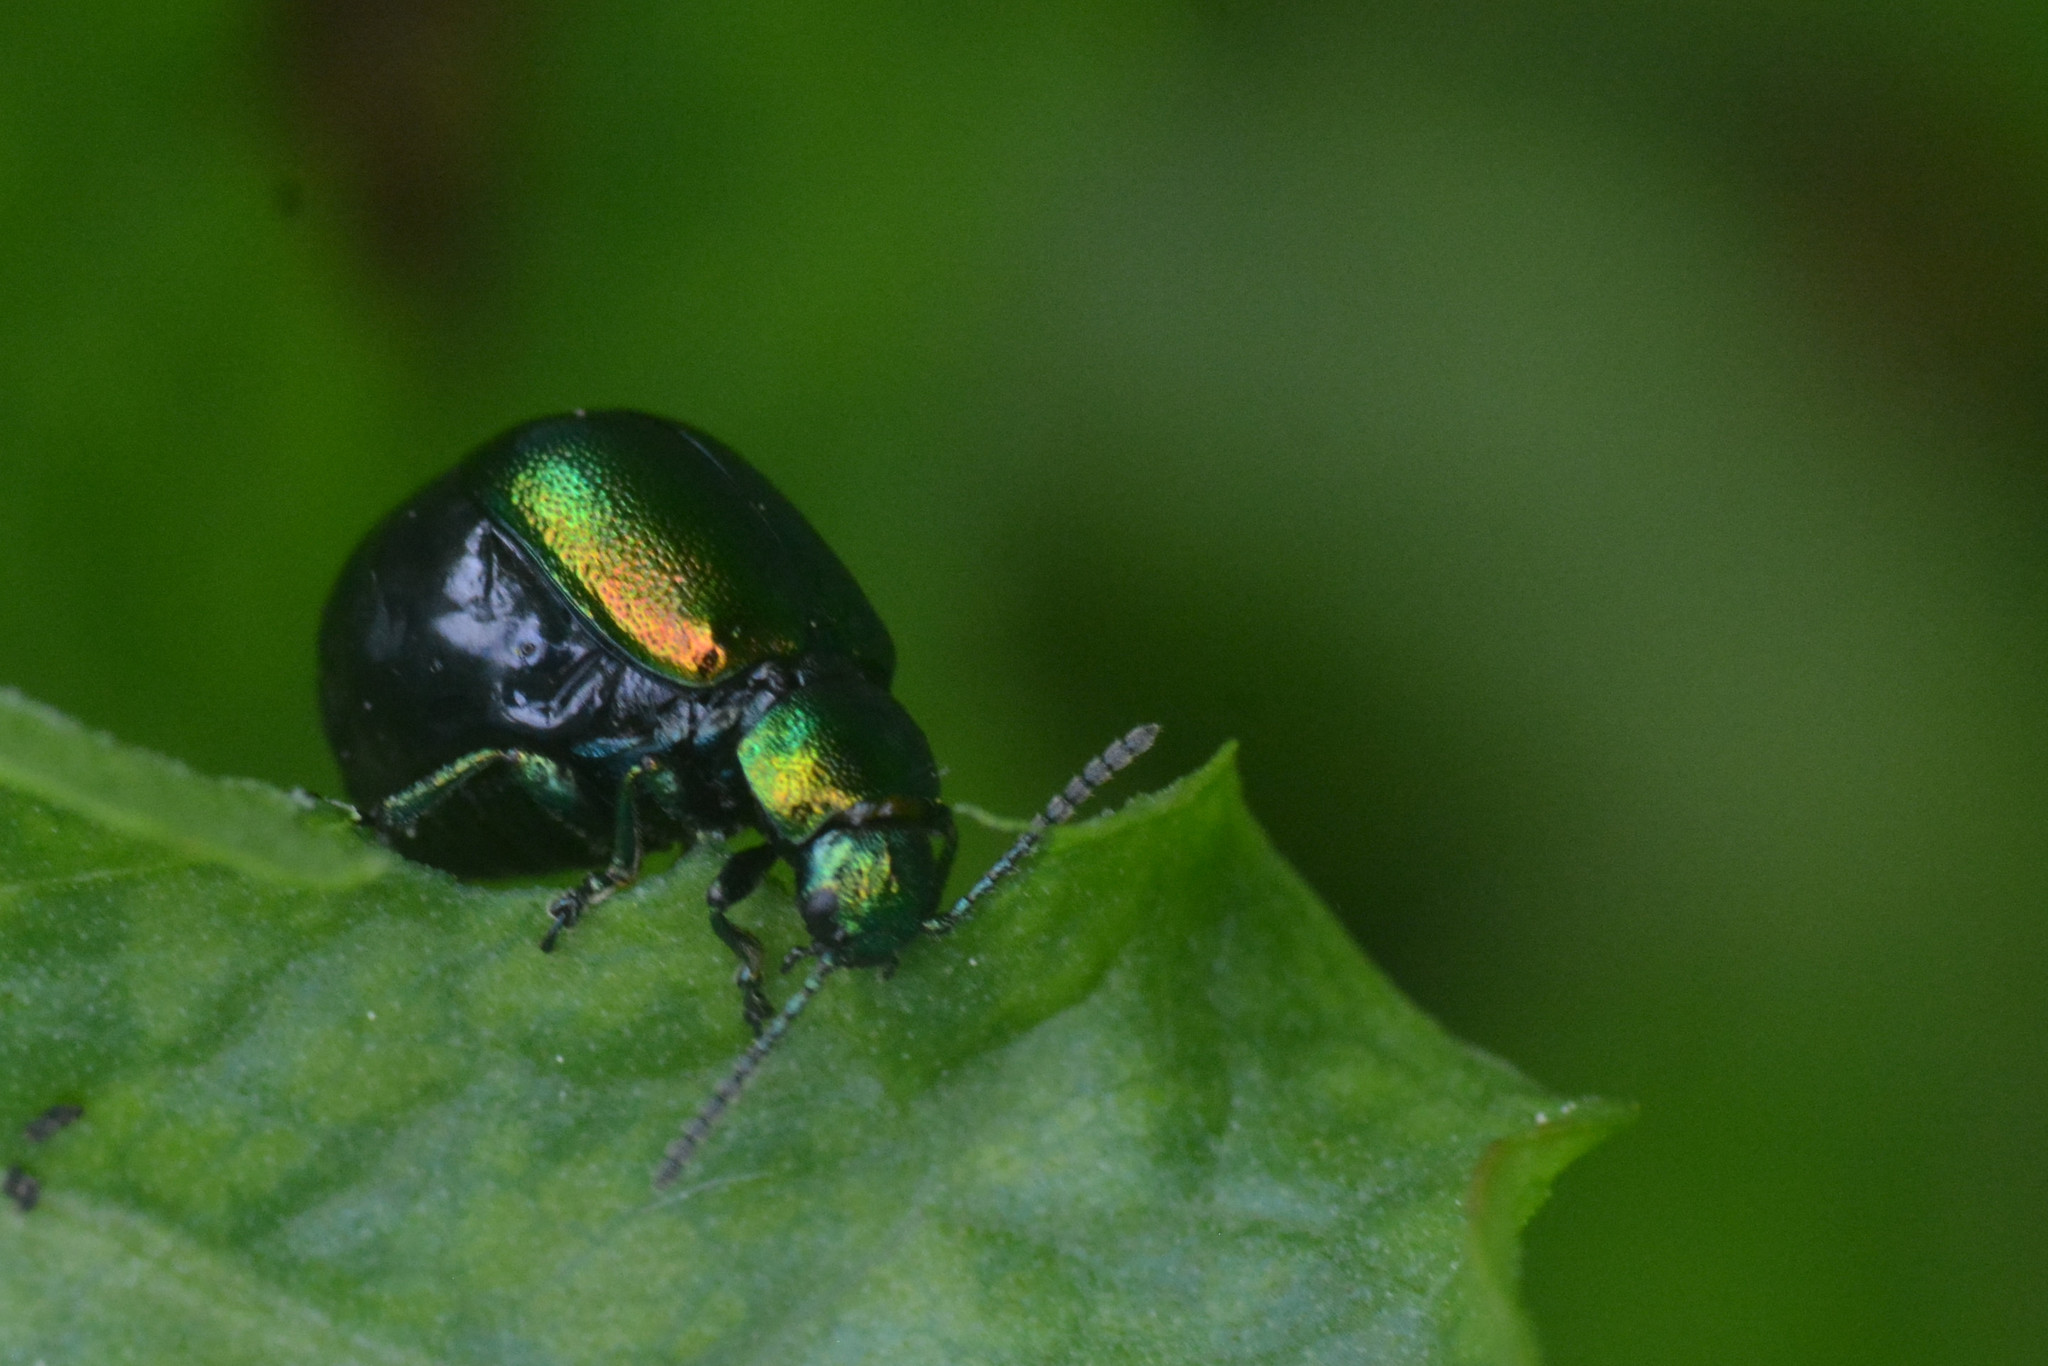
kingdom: Animalia
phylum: Arthropoda
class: Insecta
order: Coleoptera
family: Chrysomelidae
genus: Gastrophysa
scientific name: Gastrophysa viridula
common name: Green dock beetle
